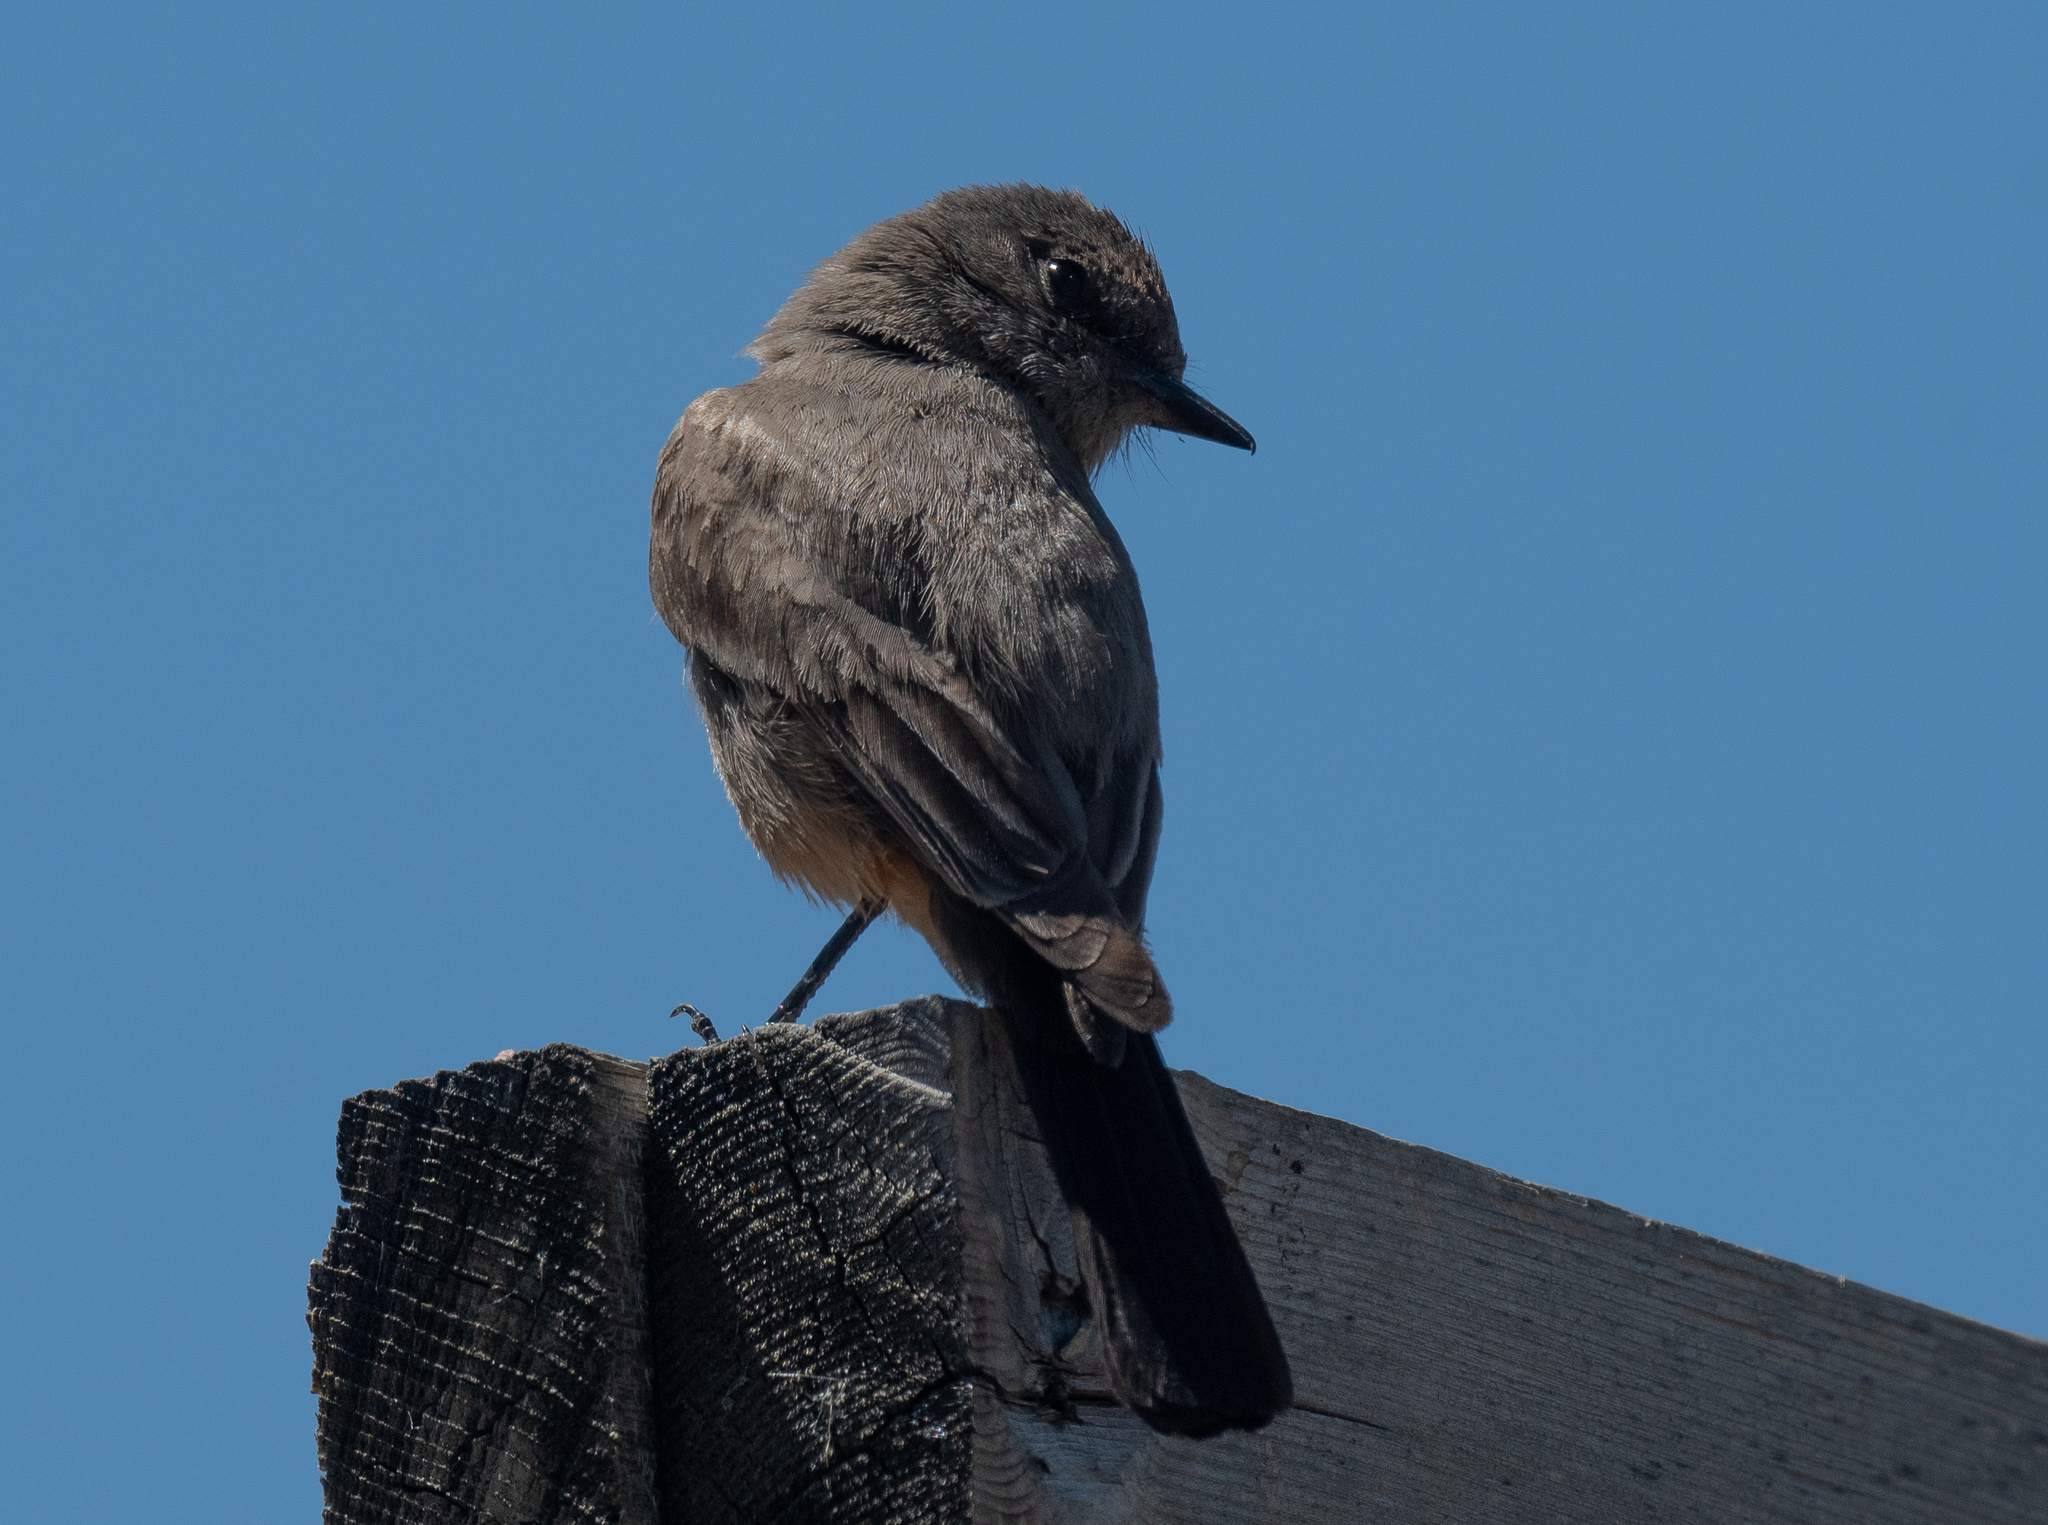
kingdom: Animalia
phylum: Chordata
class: Aves
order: Passeriformes
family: Tyrannidae
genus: Sayornis
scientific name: Sayornis saya
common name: Say's phoebe
